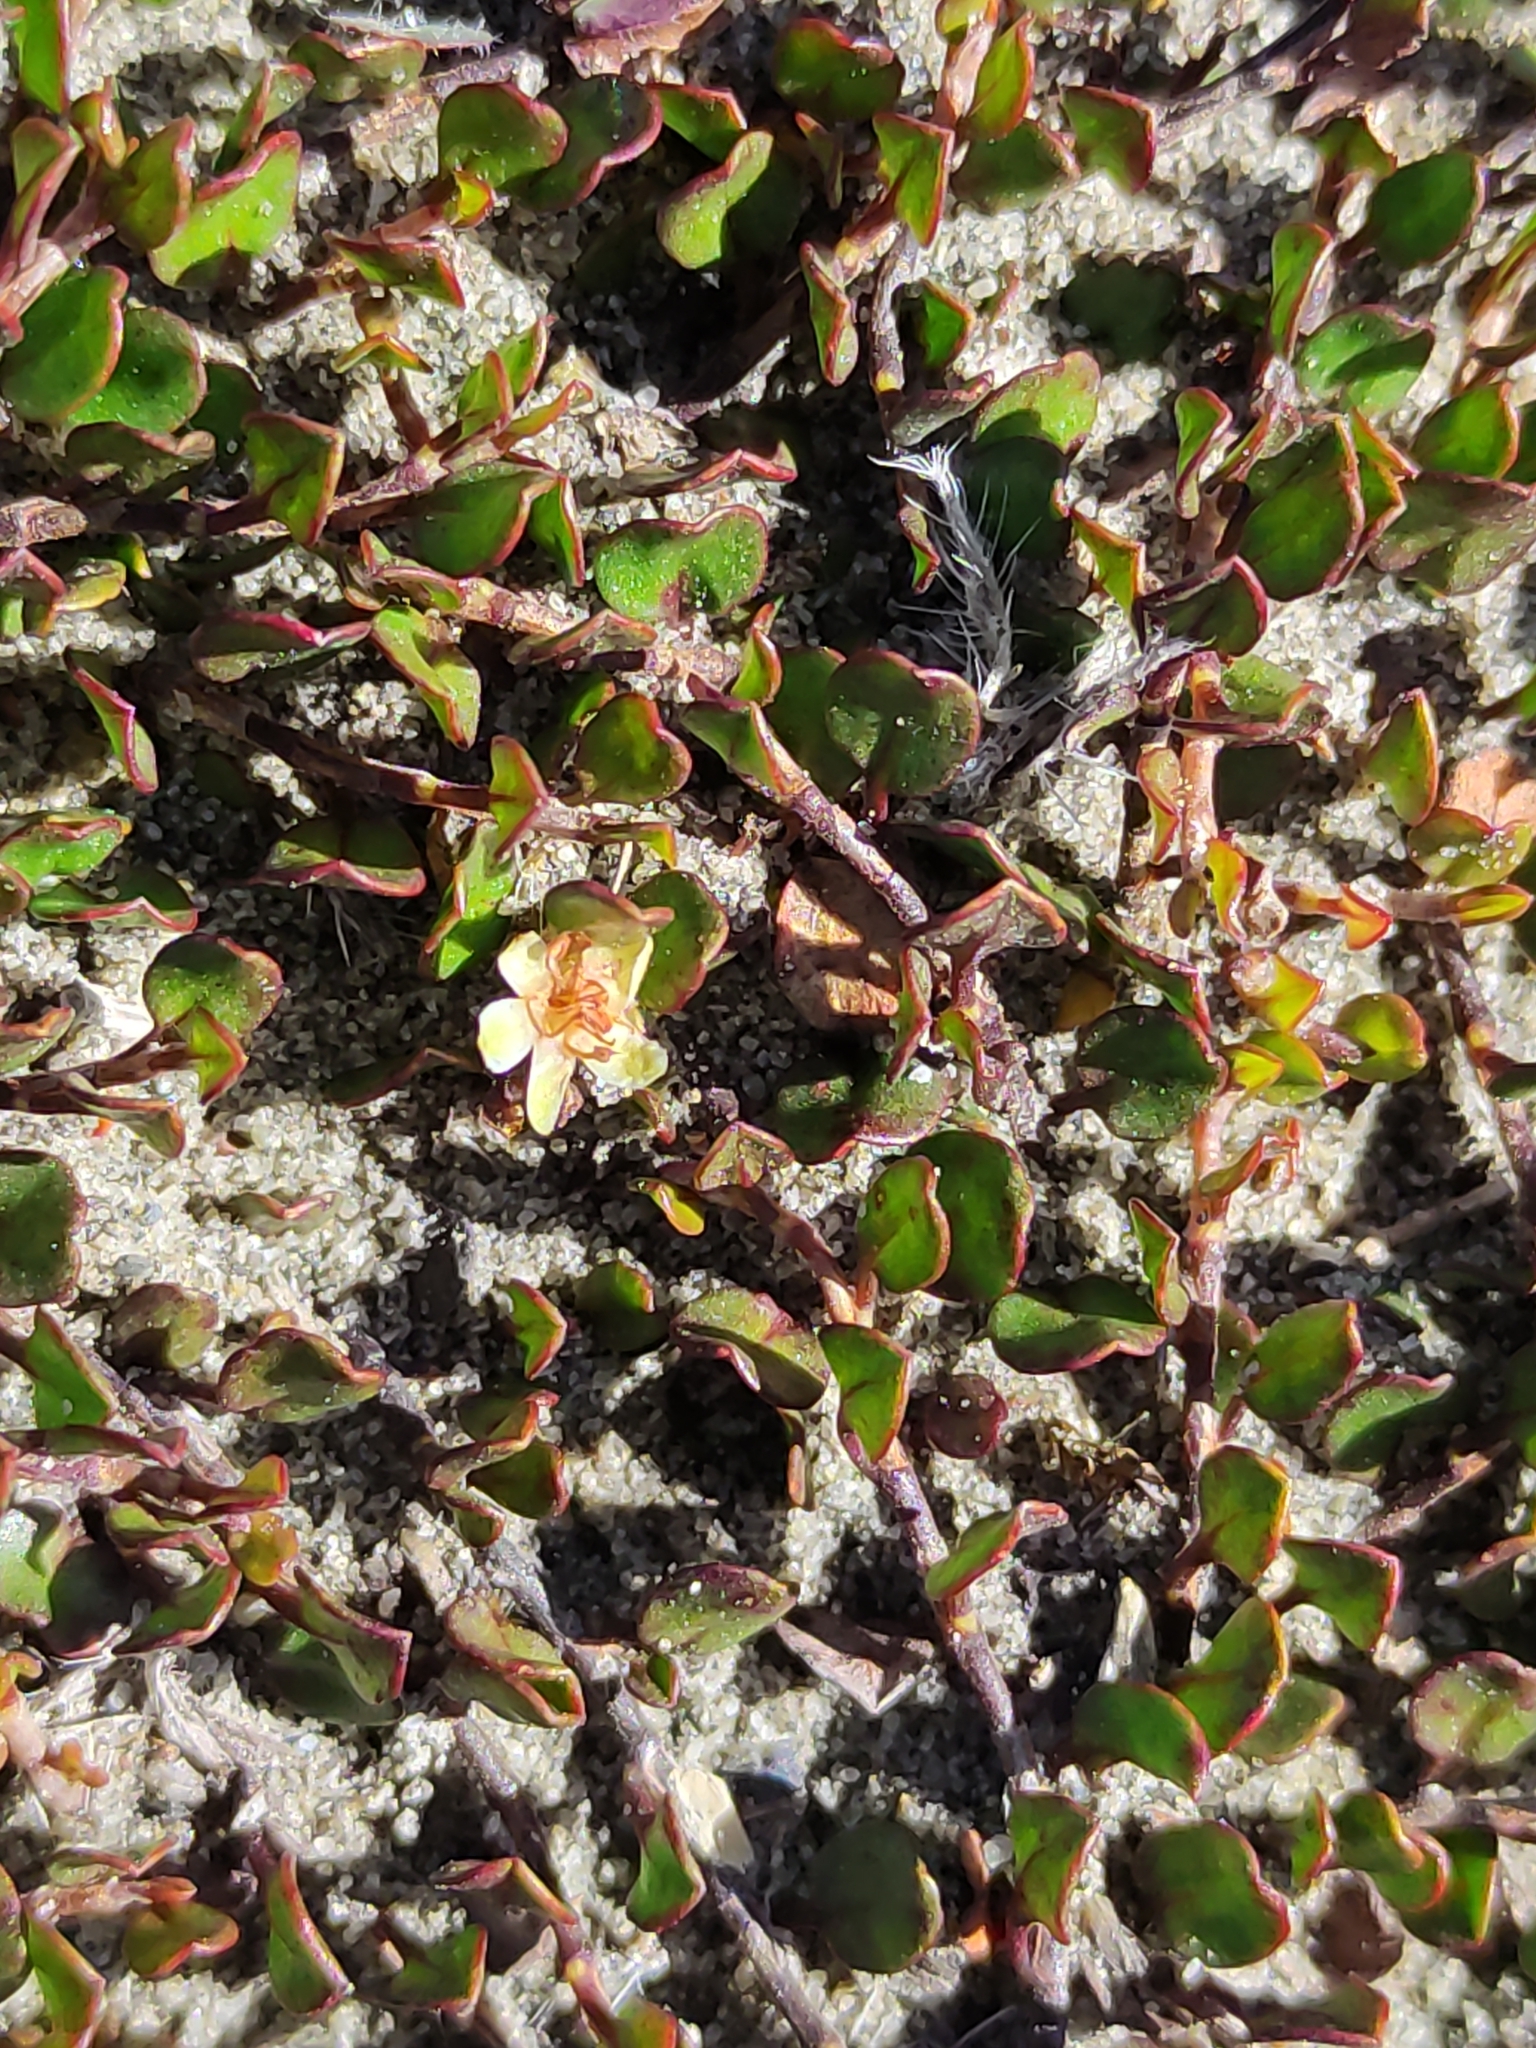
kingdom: Plantae
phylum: Tracheophyta
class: Magnoliopsida
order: Caryophyllales
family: Polygonaceae
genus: Muehlenbeckia
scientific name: Muehlenbeckia axillaris
